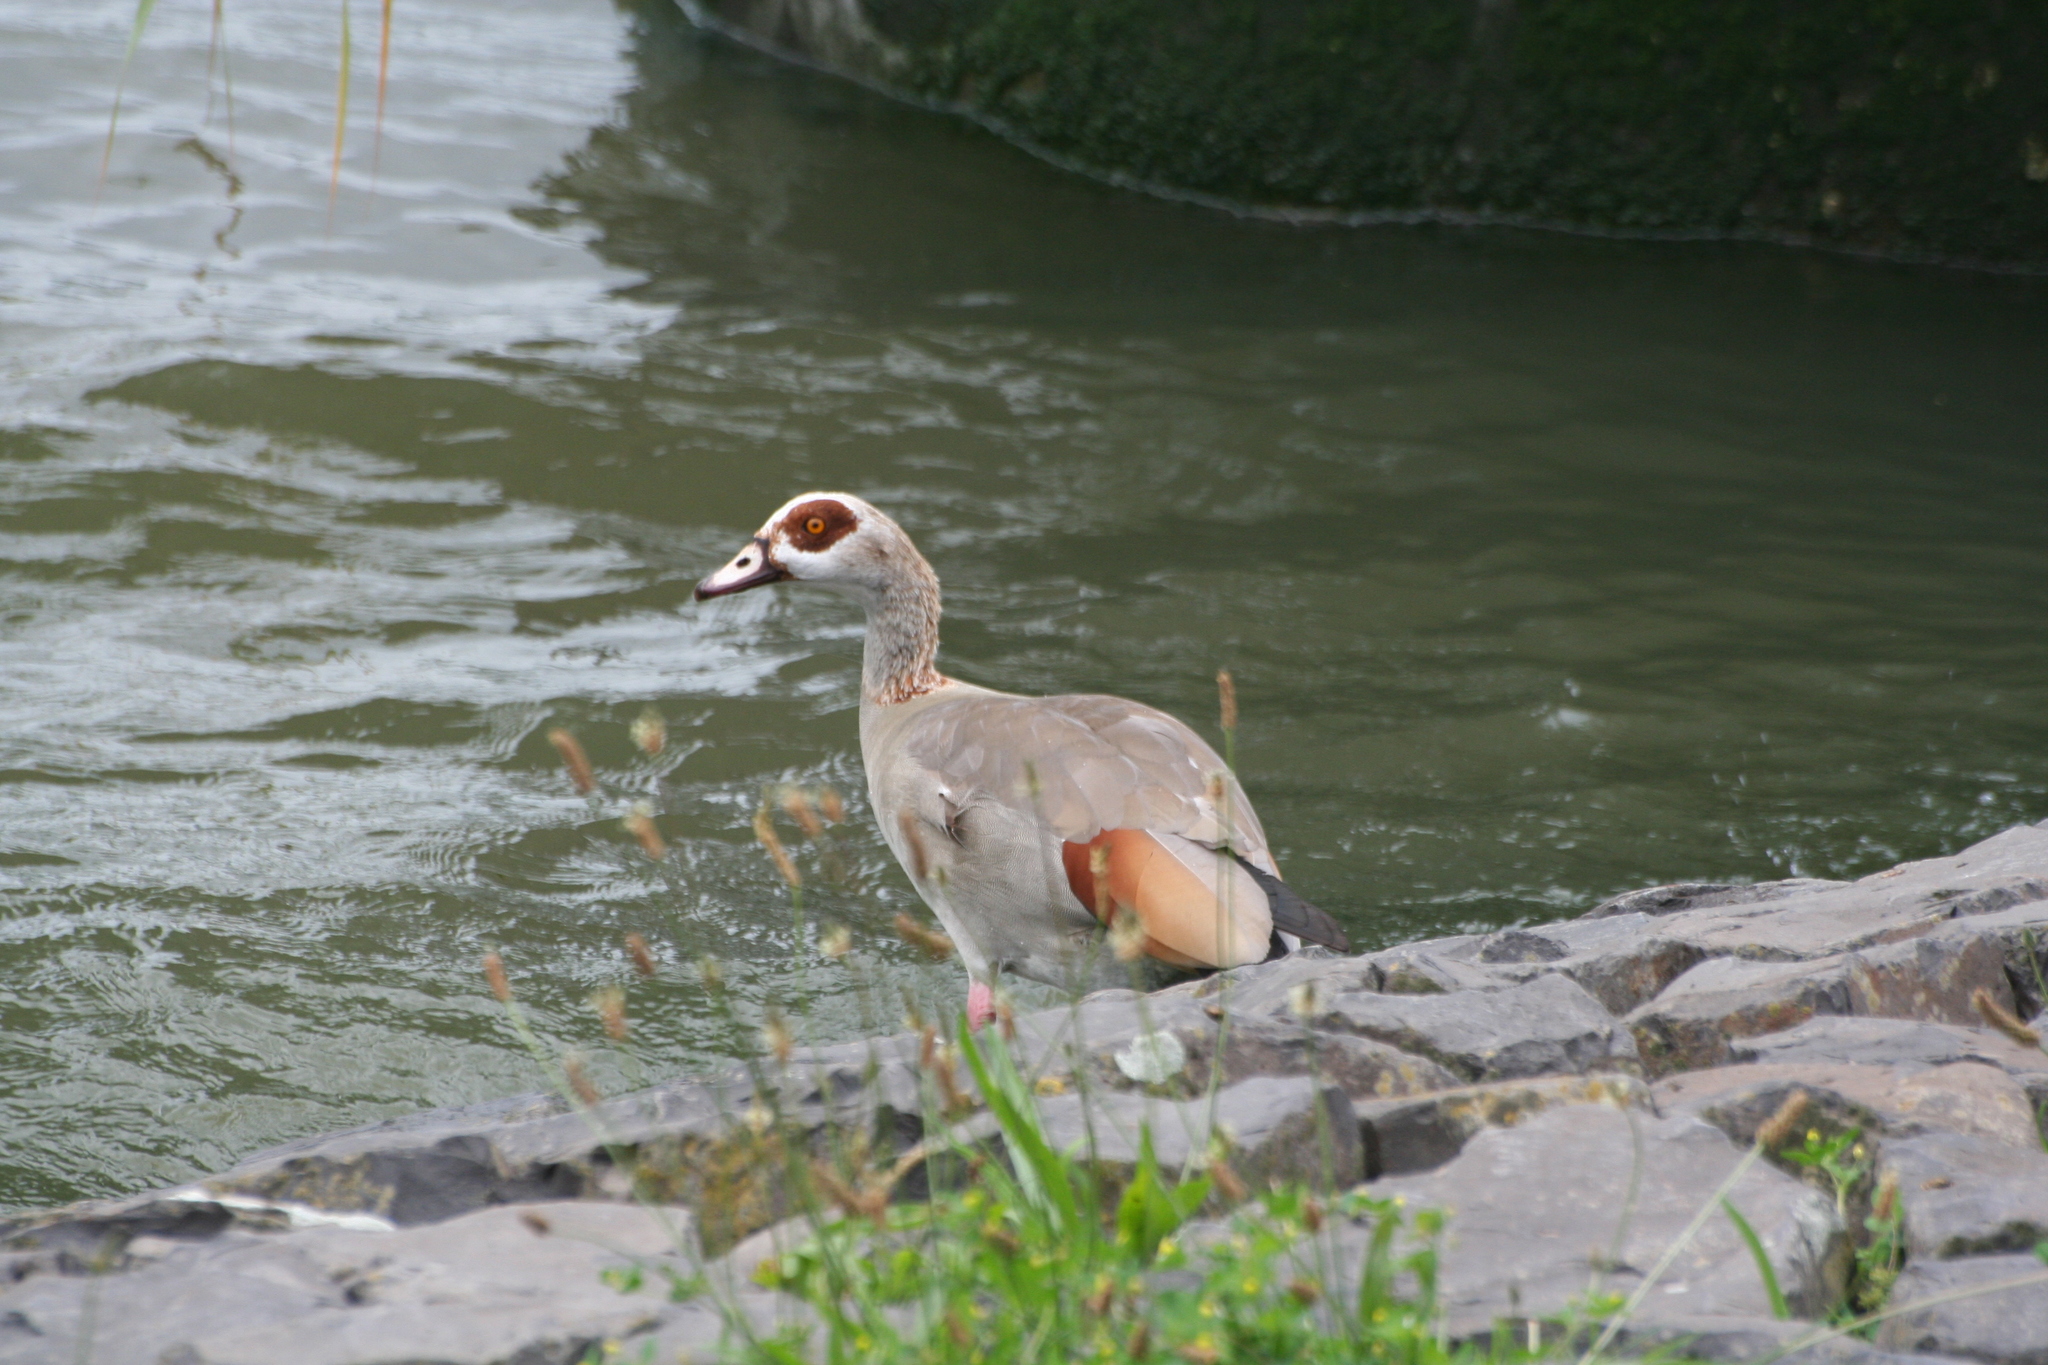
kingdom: Animalia
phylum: Chordata
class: Aves
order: Anseriformes
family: Anatidae
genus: Alopochen
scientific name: Alopochen aegyptiaca
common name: Egyptian goose
